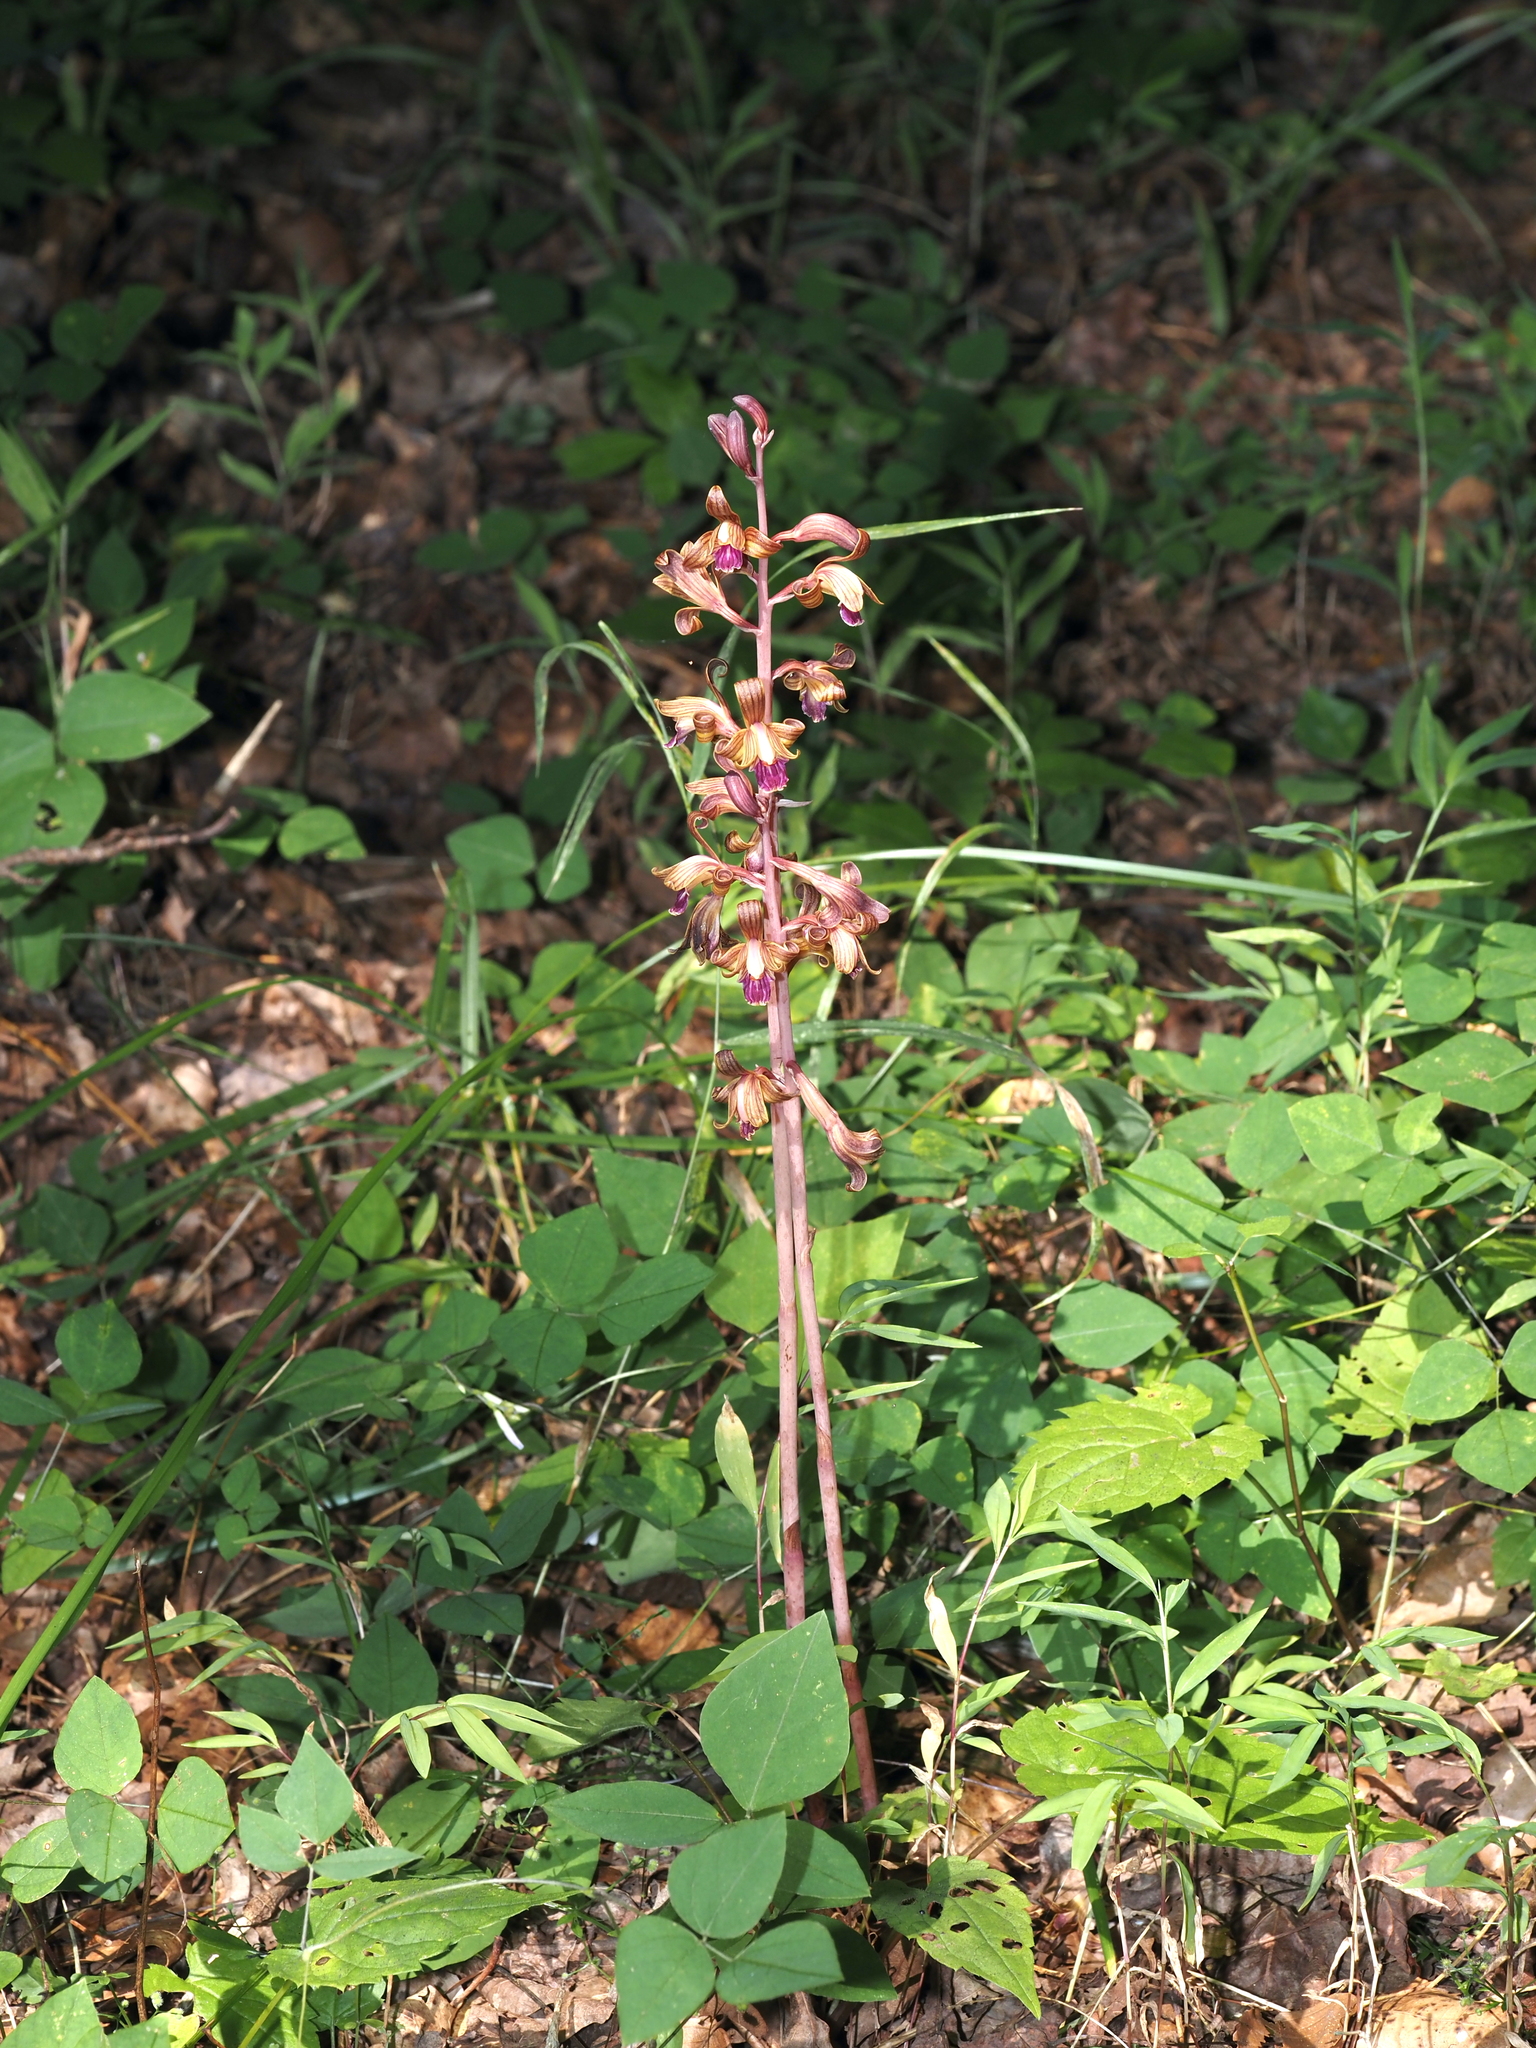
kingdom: Plantae
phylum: Tracheophyta
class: Liliopsida
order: Asparagales
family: Orchidaceae
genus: Bletia
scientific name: Bletia spicata
